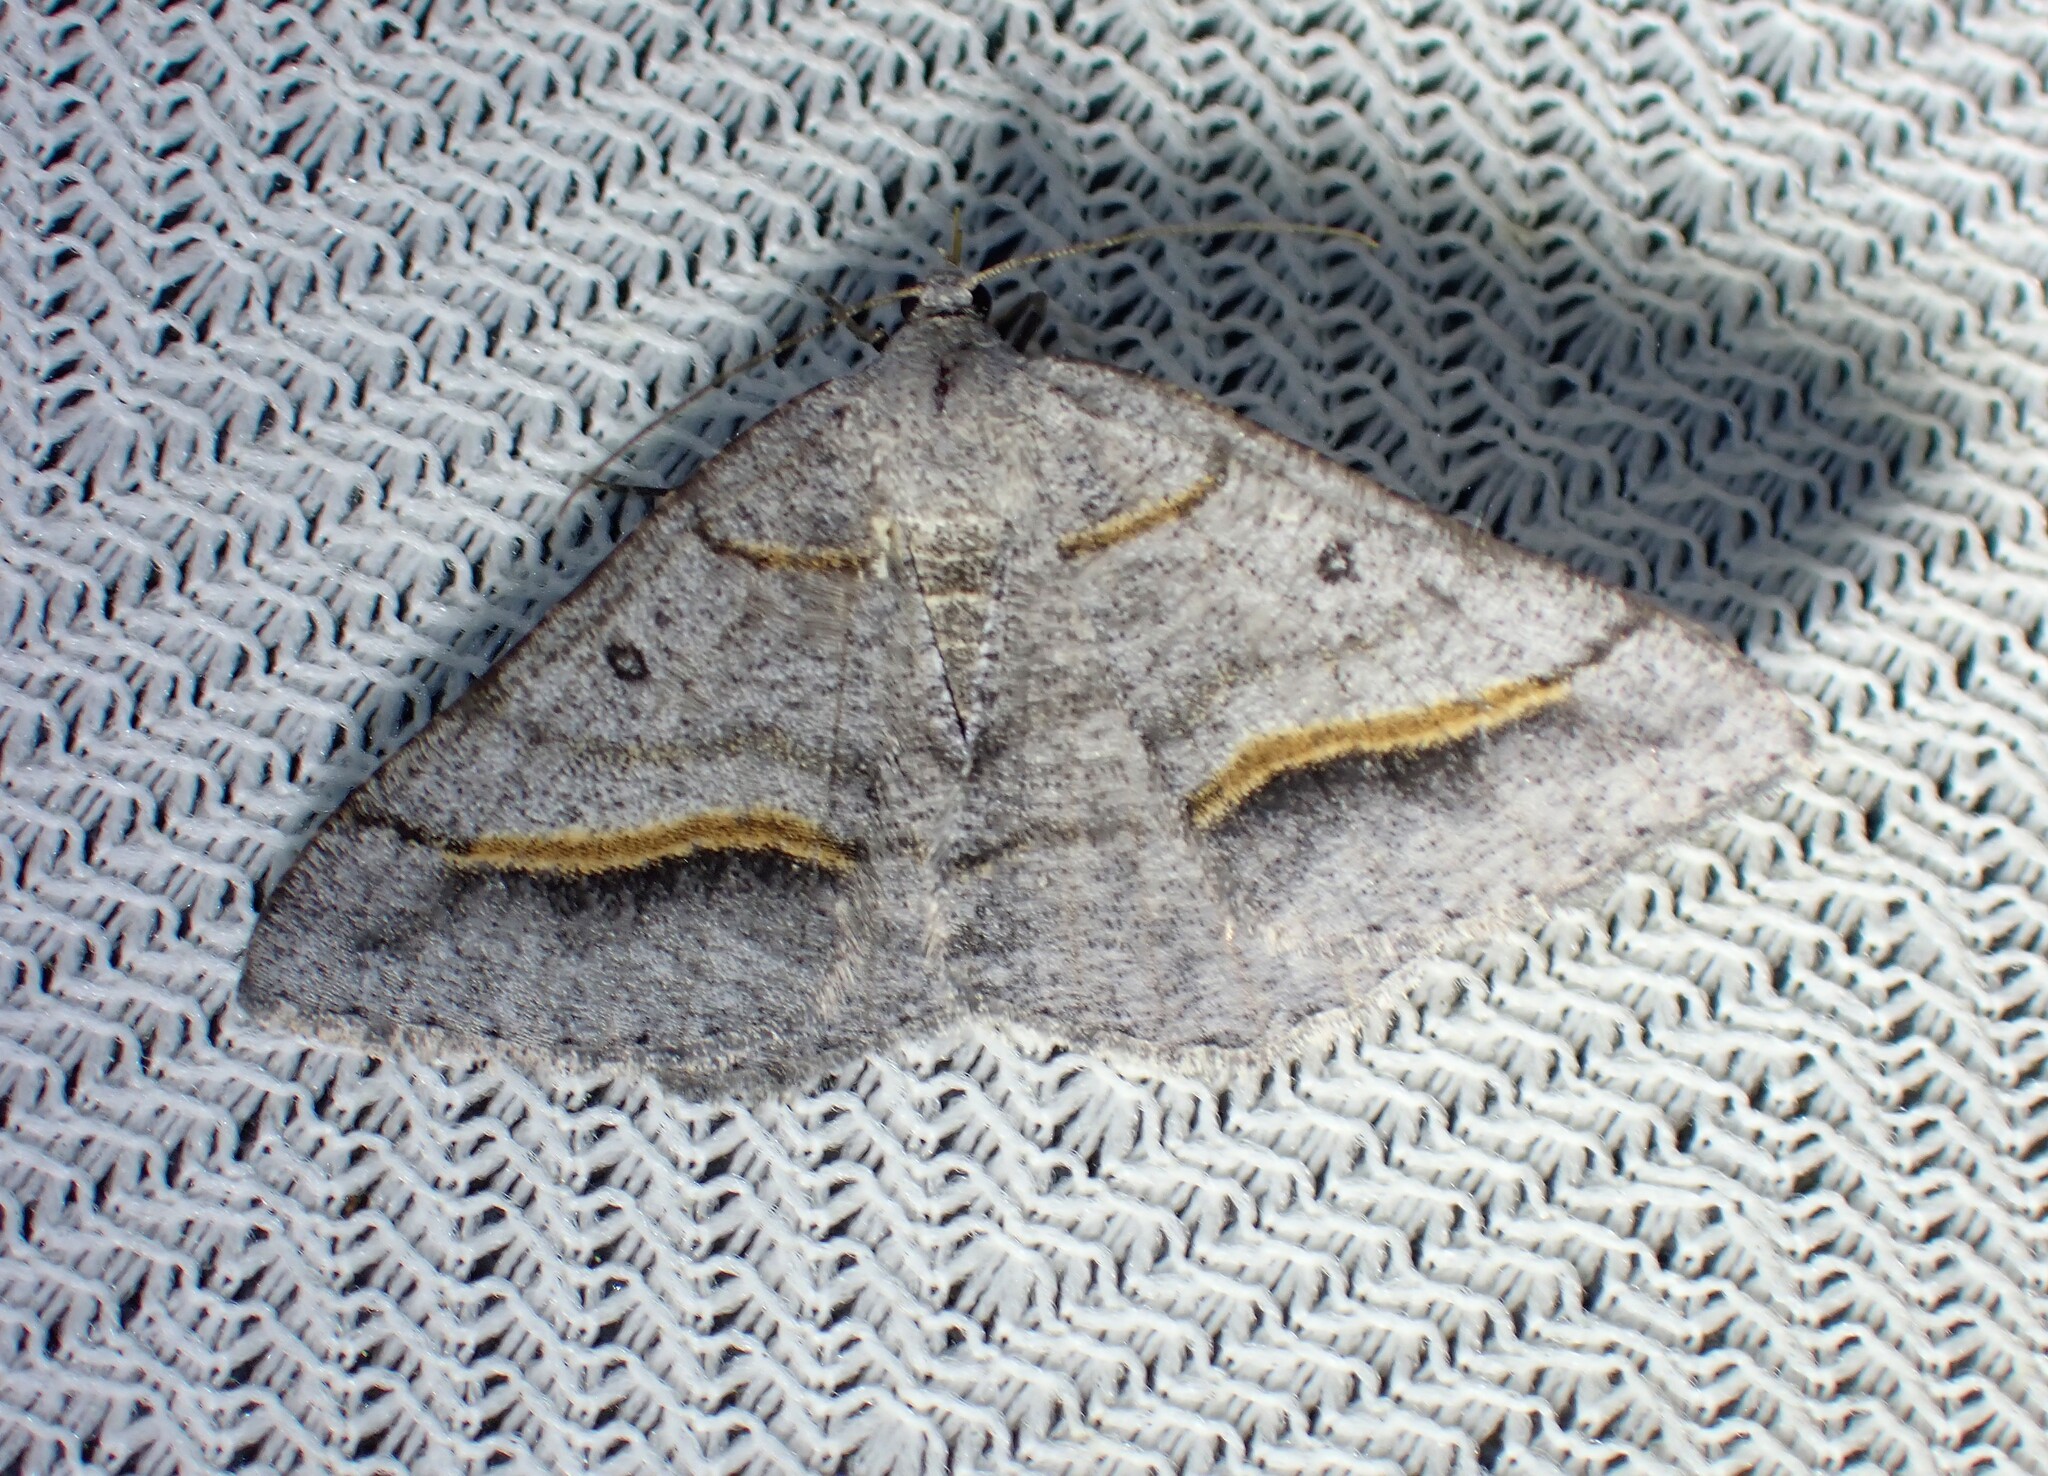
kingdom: Animalia
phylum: Arthropoda
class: Insecta
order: Lepidoptera
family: Geometridae
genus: Digrammia
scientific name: Digrammia neptaria
